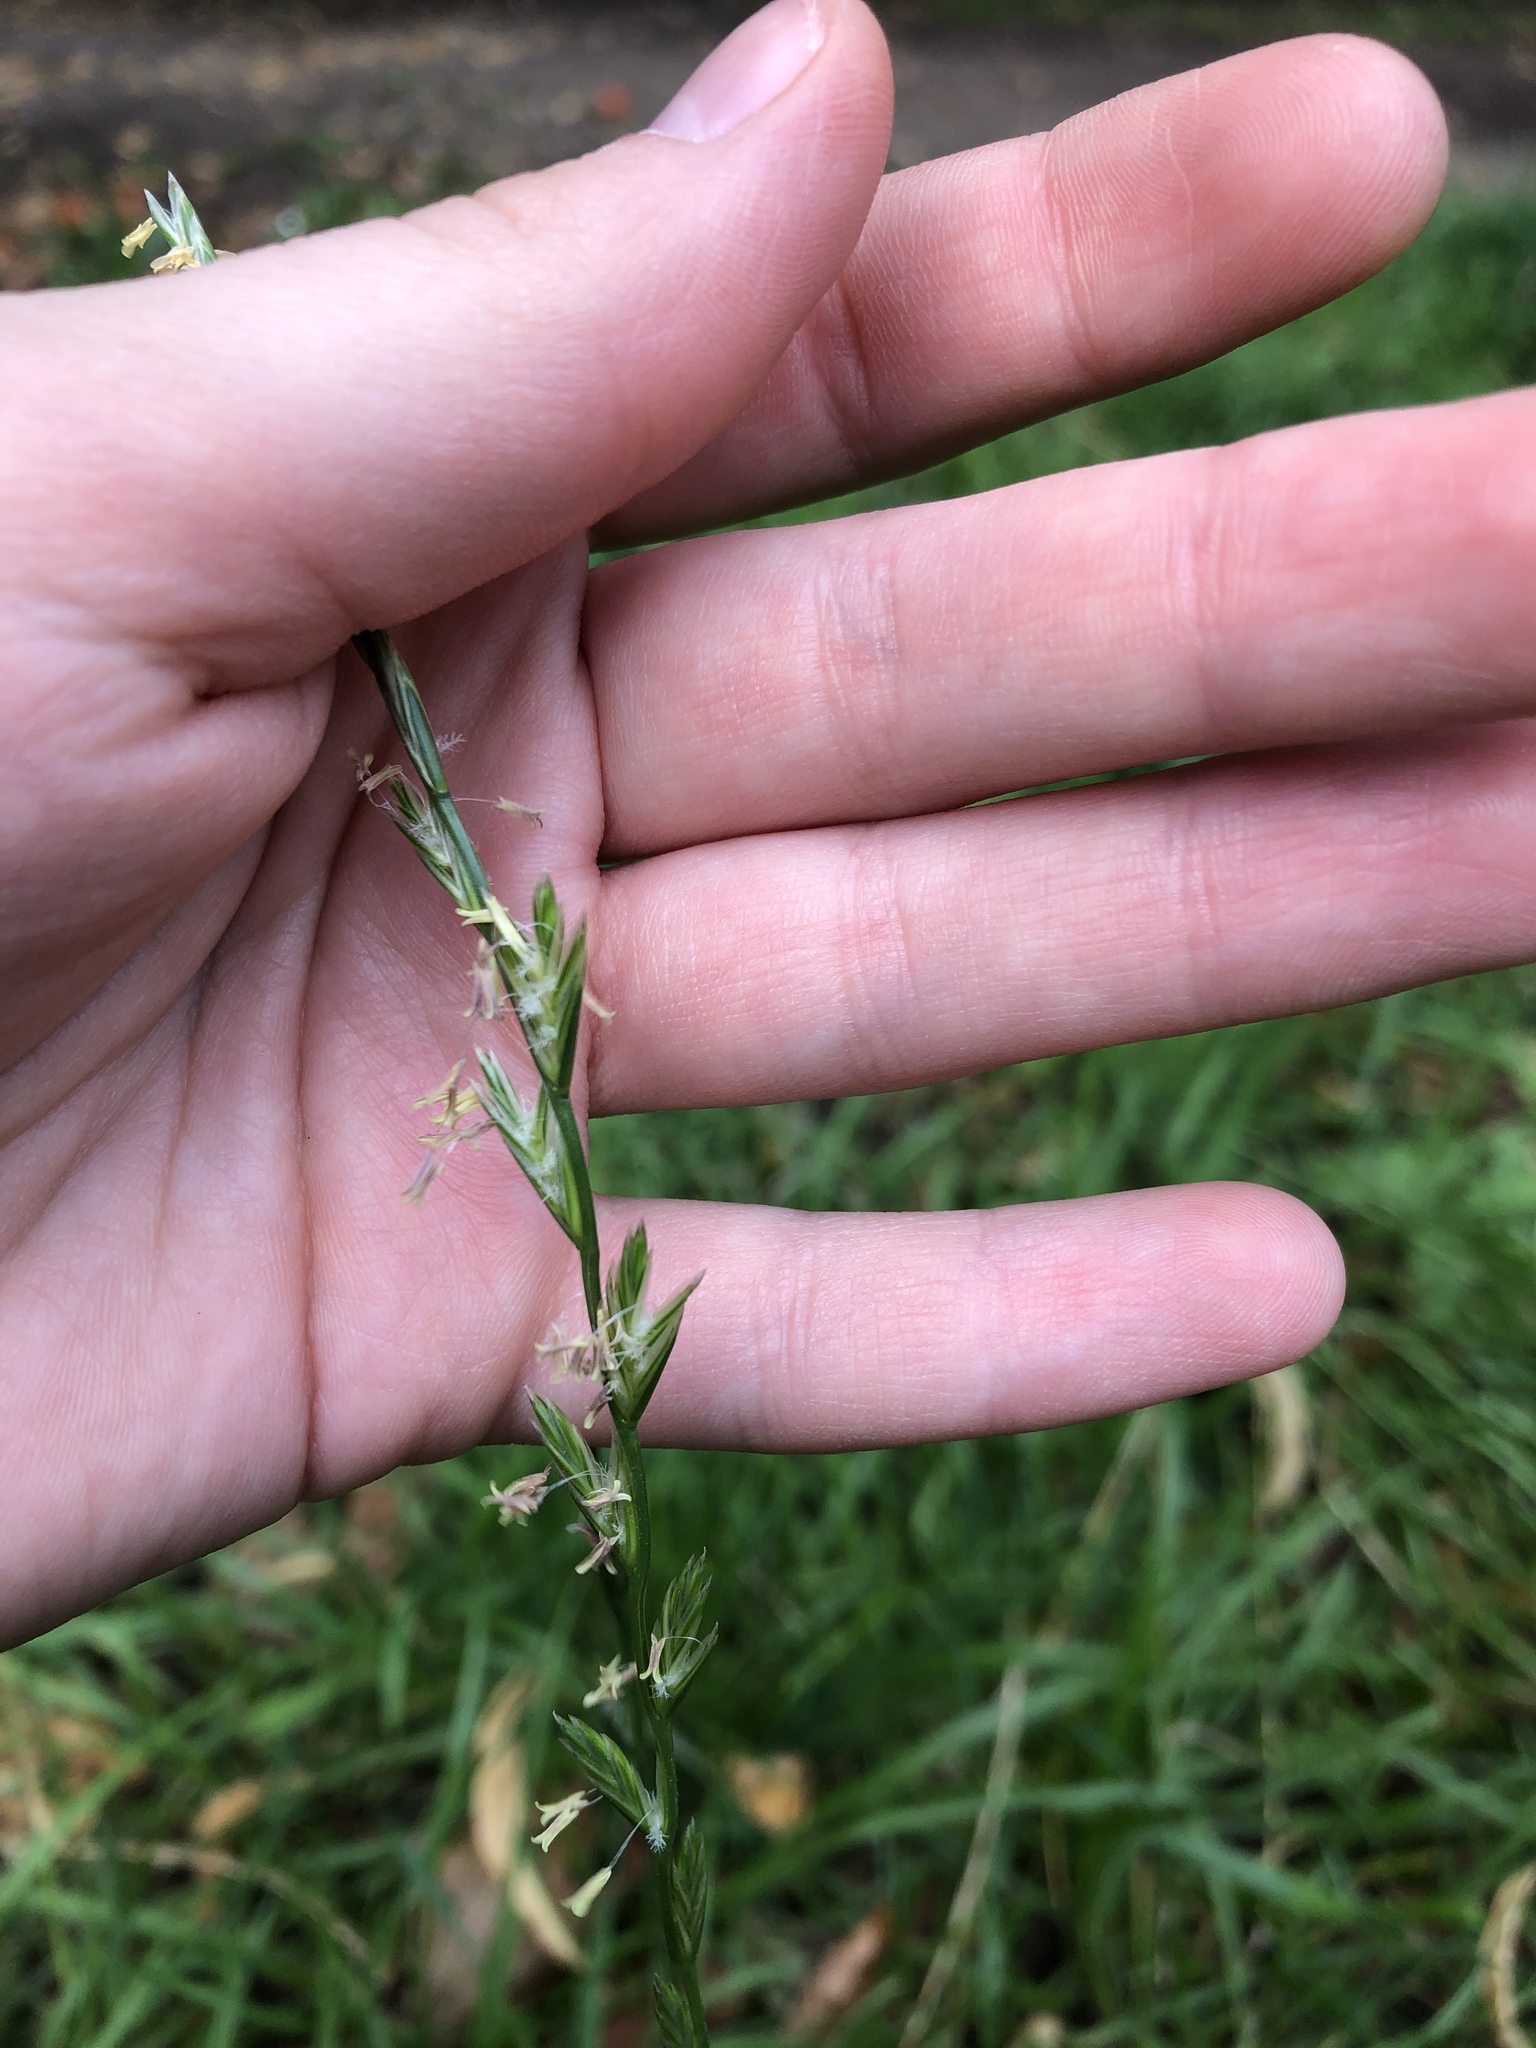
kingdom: Plantae
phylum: Tracheophyta
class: Liliopsida
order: Poales
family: Poaceae
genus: Lolium
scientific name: Lolium perenne
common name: Perennial ryegrass
